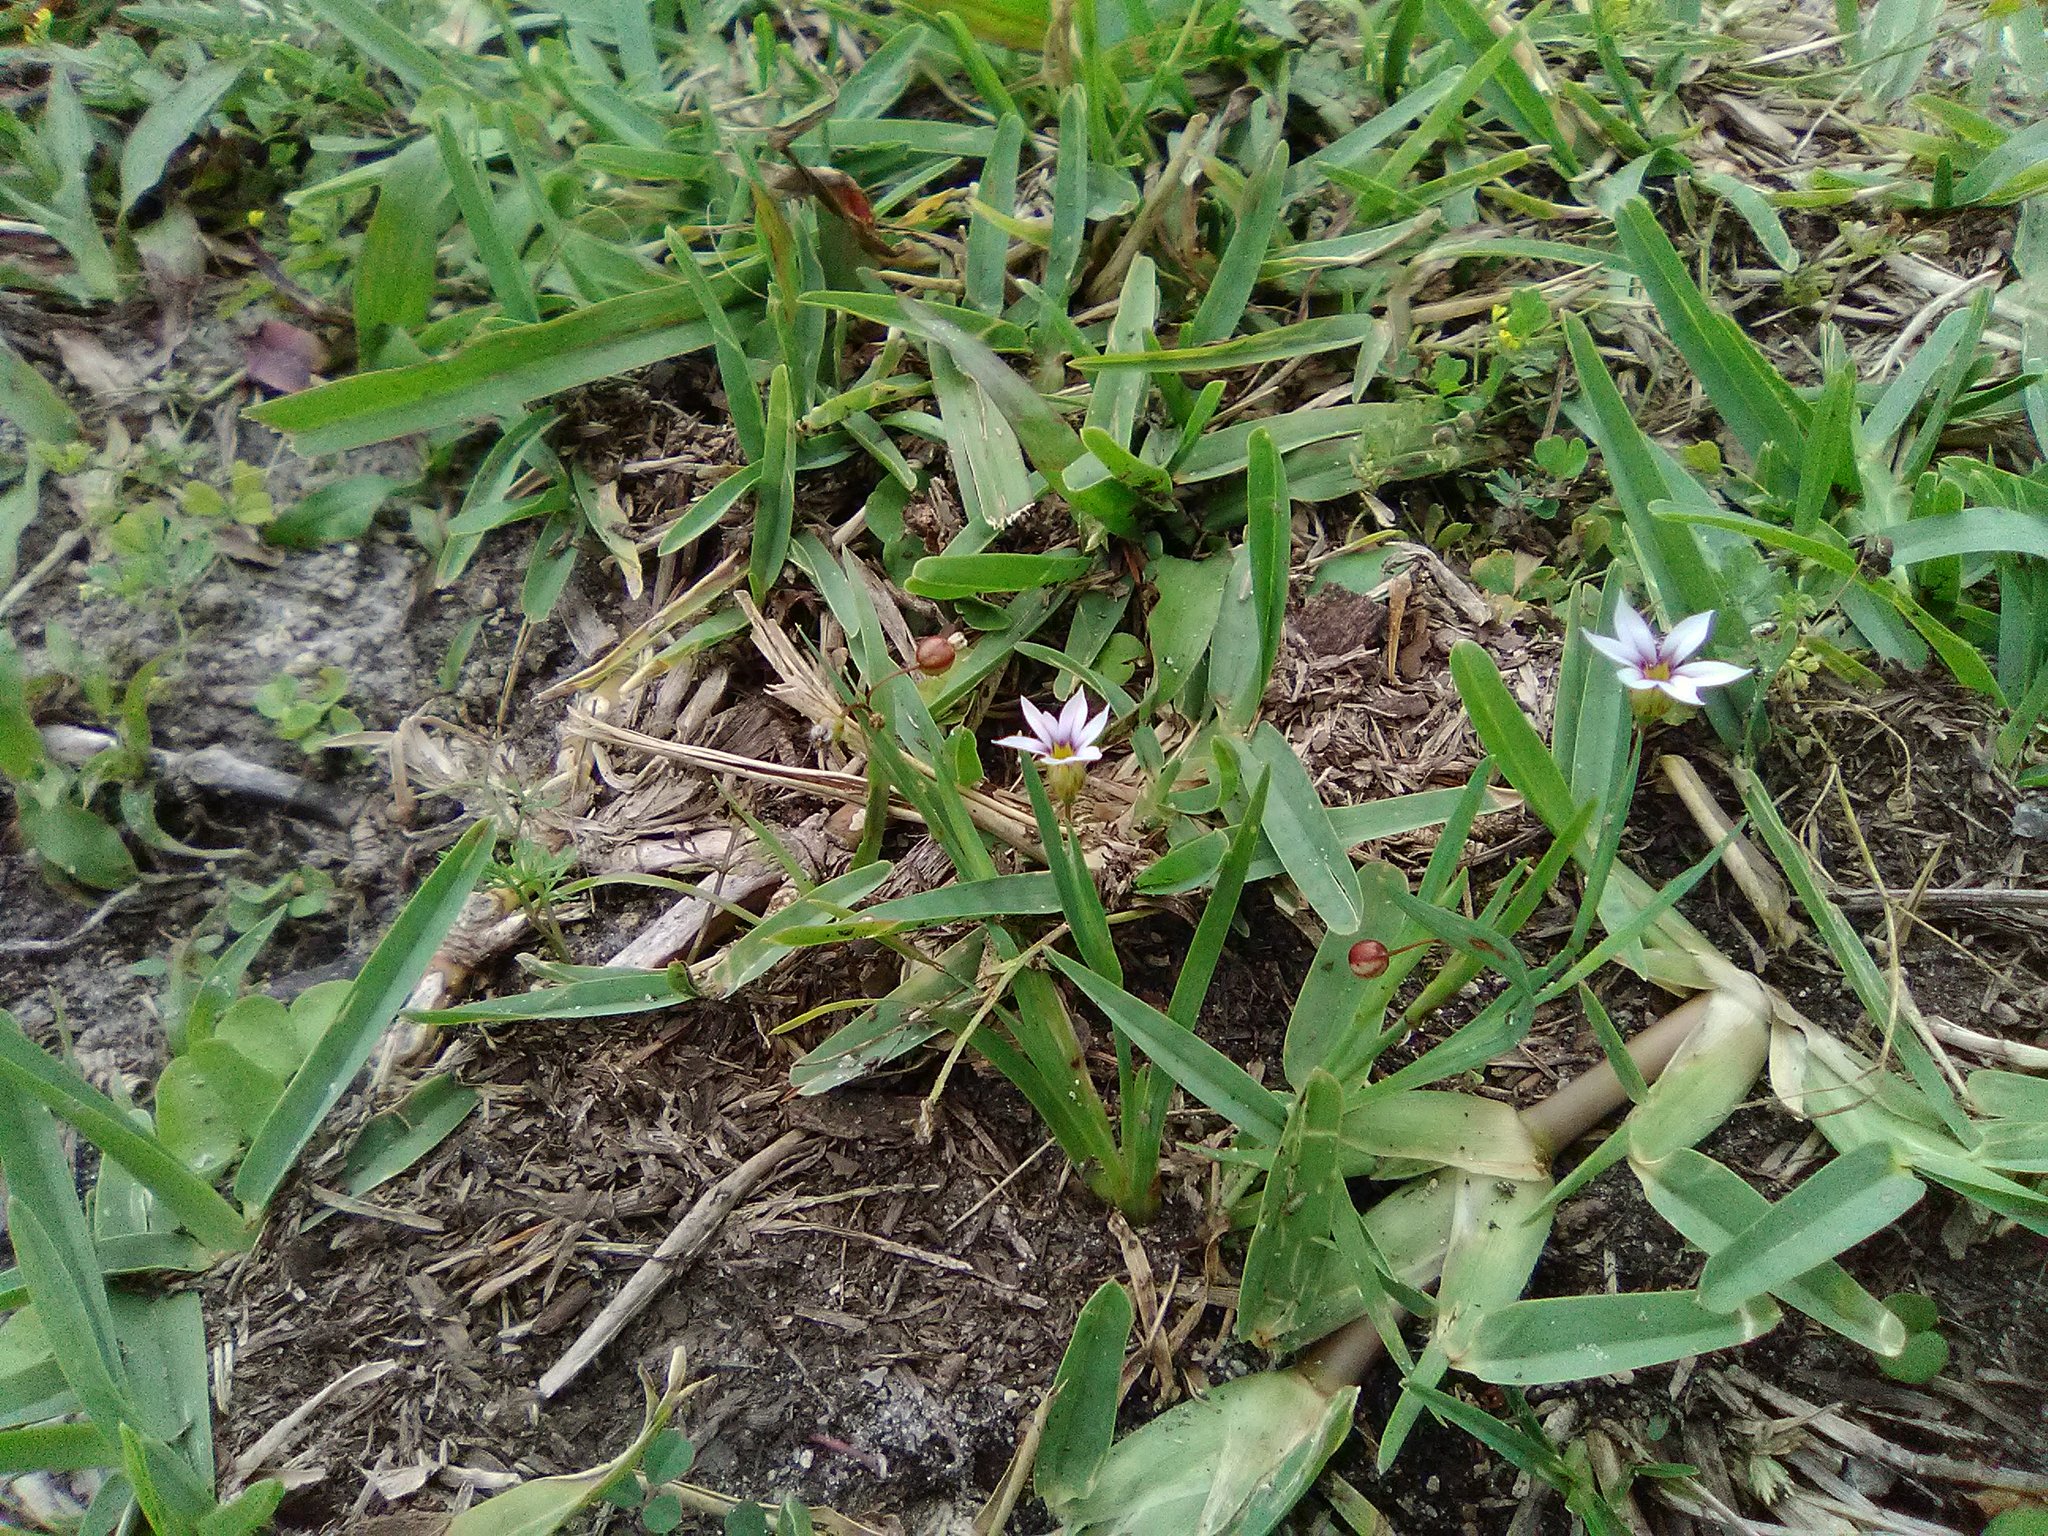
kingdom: Plantae
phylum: Tracheophyta
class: Liliopsida
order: Asparagales
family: Iridaceae
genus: Sisyrinchium
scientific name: Sisyrinchium micranthum
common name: Bermuda pigroot
